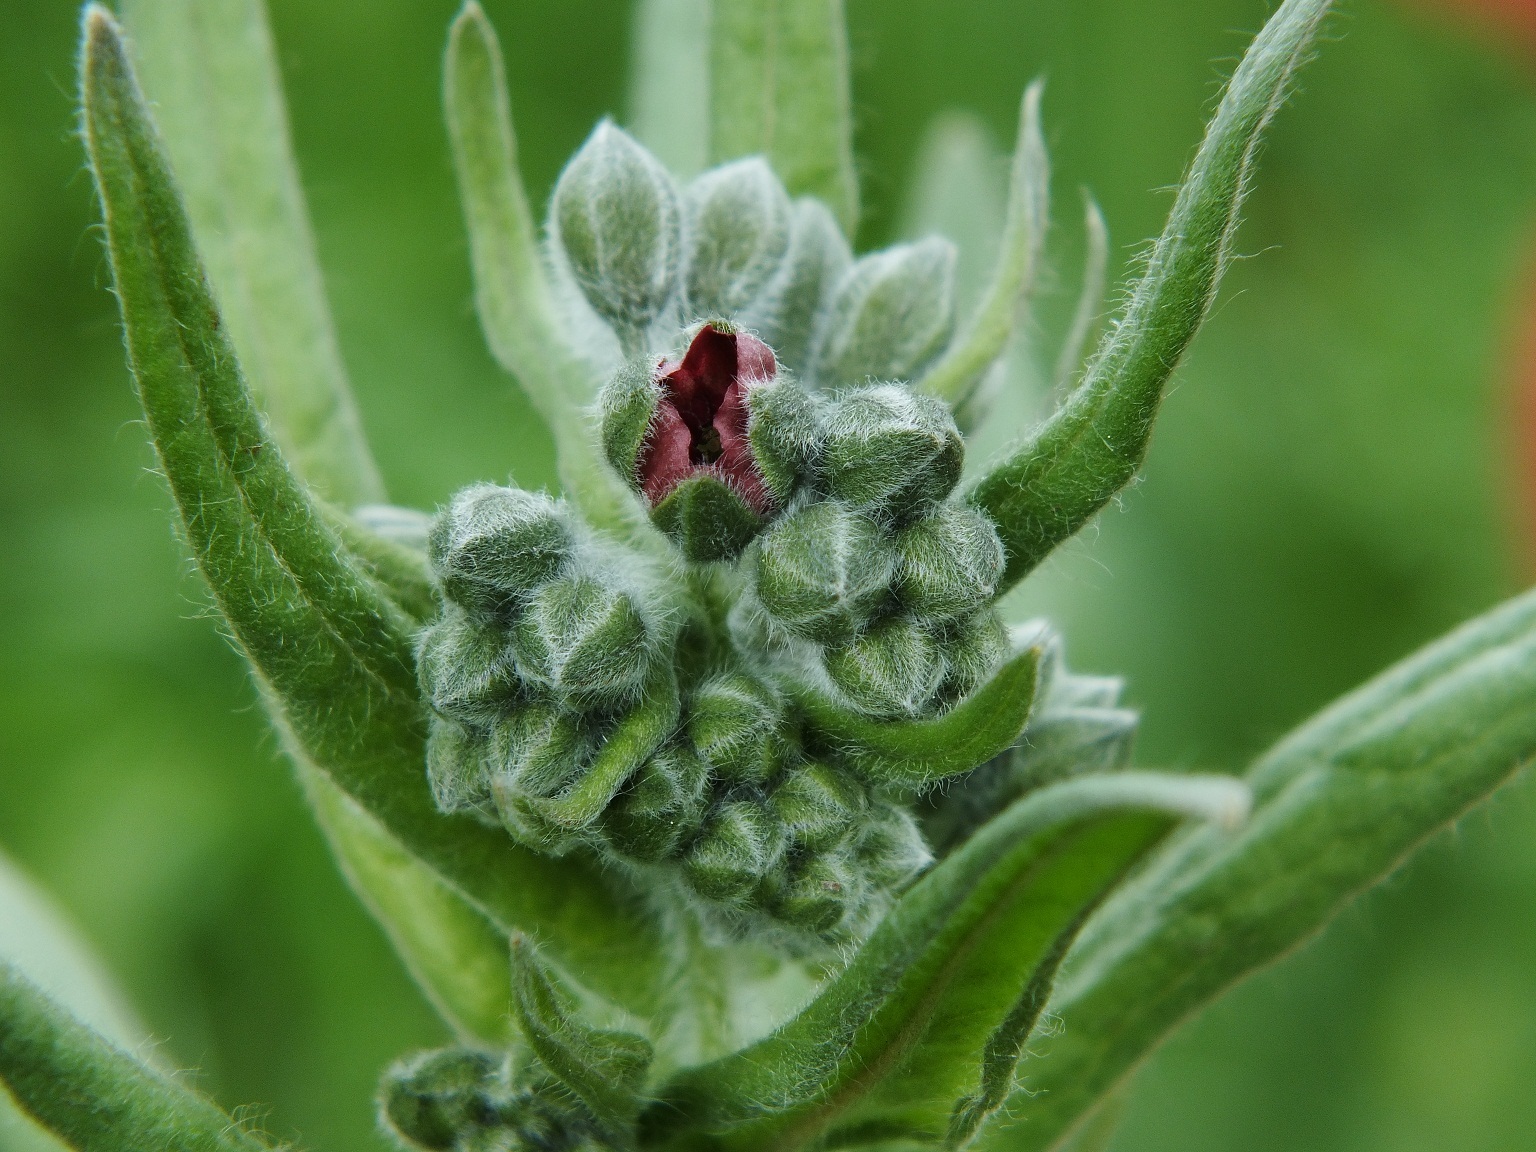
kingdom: Plantae
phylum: Tracheophyta
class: Magnoliopsida
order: Boraginales
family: Boraginaceae
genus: Cynoglossum
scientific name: Cynoglossum officinale
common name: Hound's-tongue
